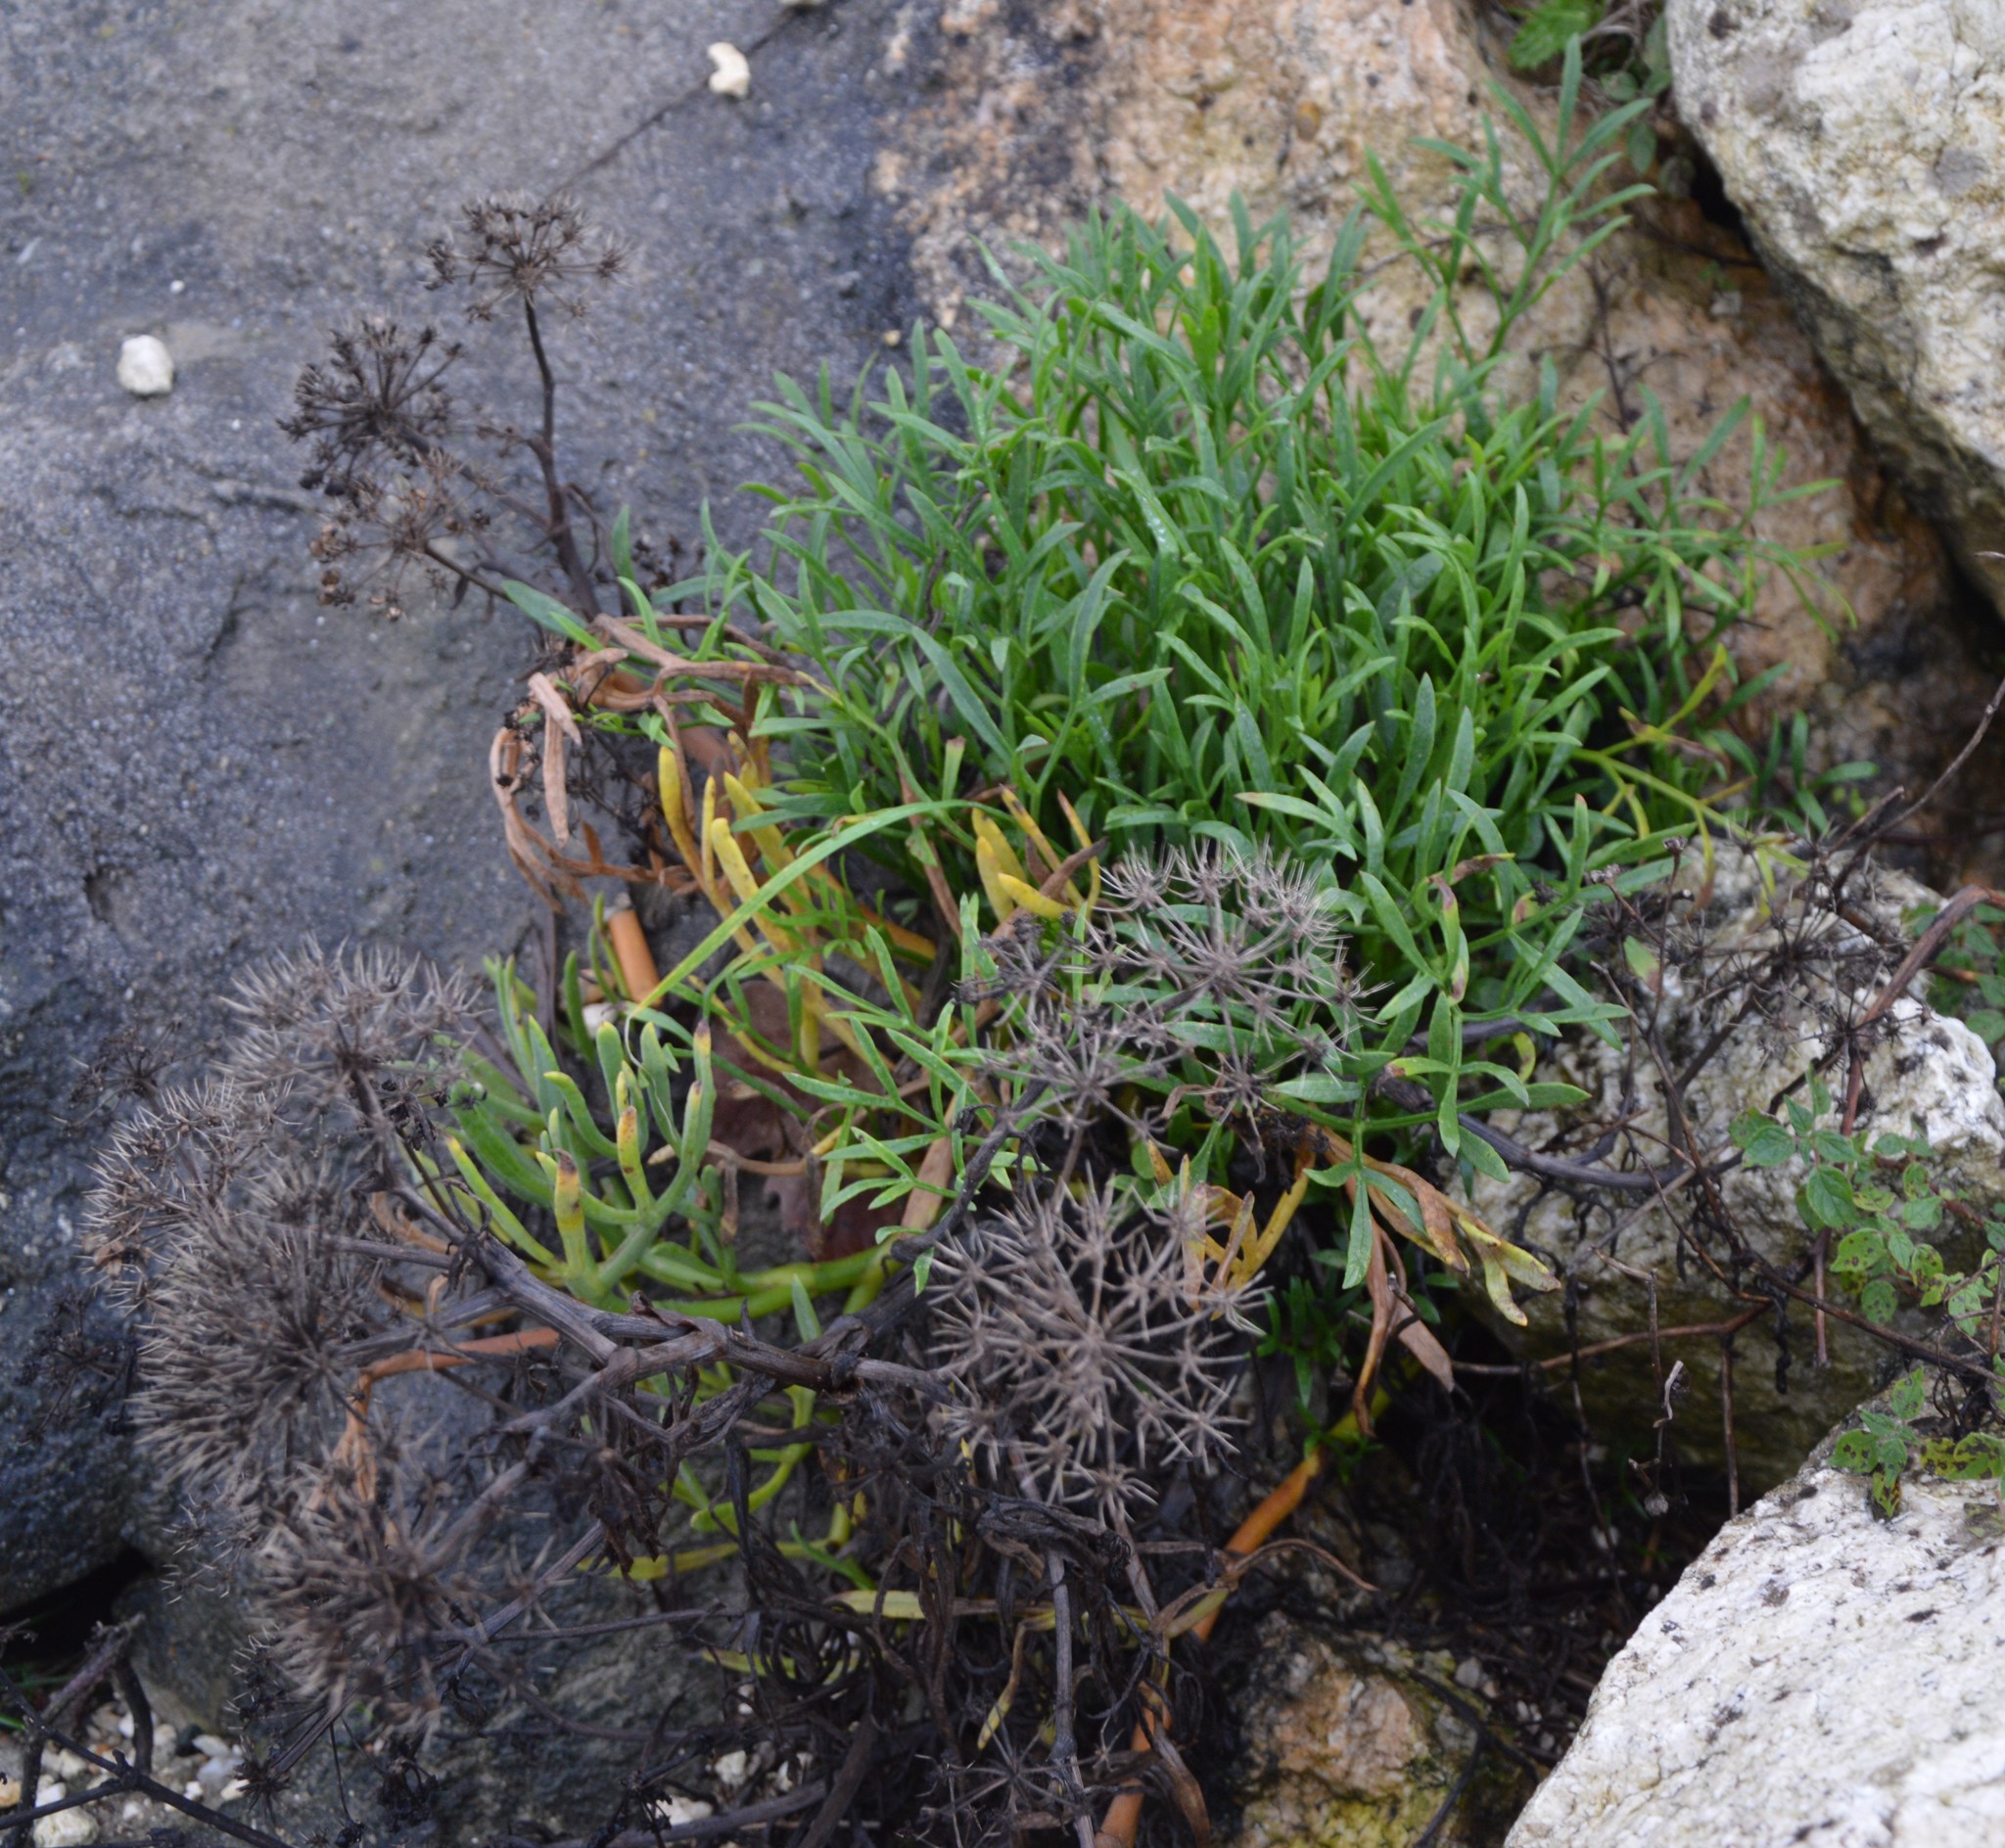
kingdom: Plantae
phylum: Tracheophyta
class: Magnoliopsida
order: Apiales
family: Apiaceae
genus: Crithmum
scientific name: Crithmum maritimum
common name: Rock samphire
